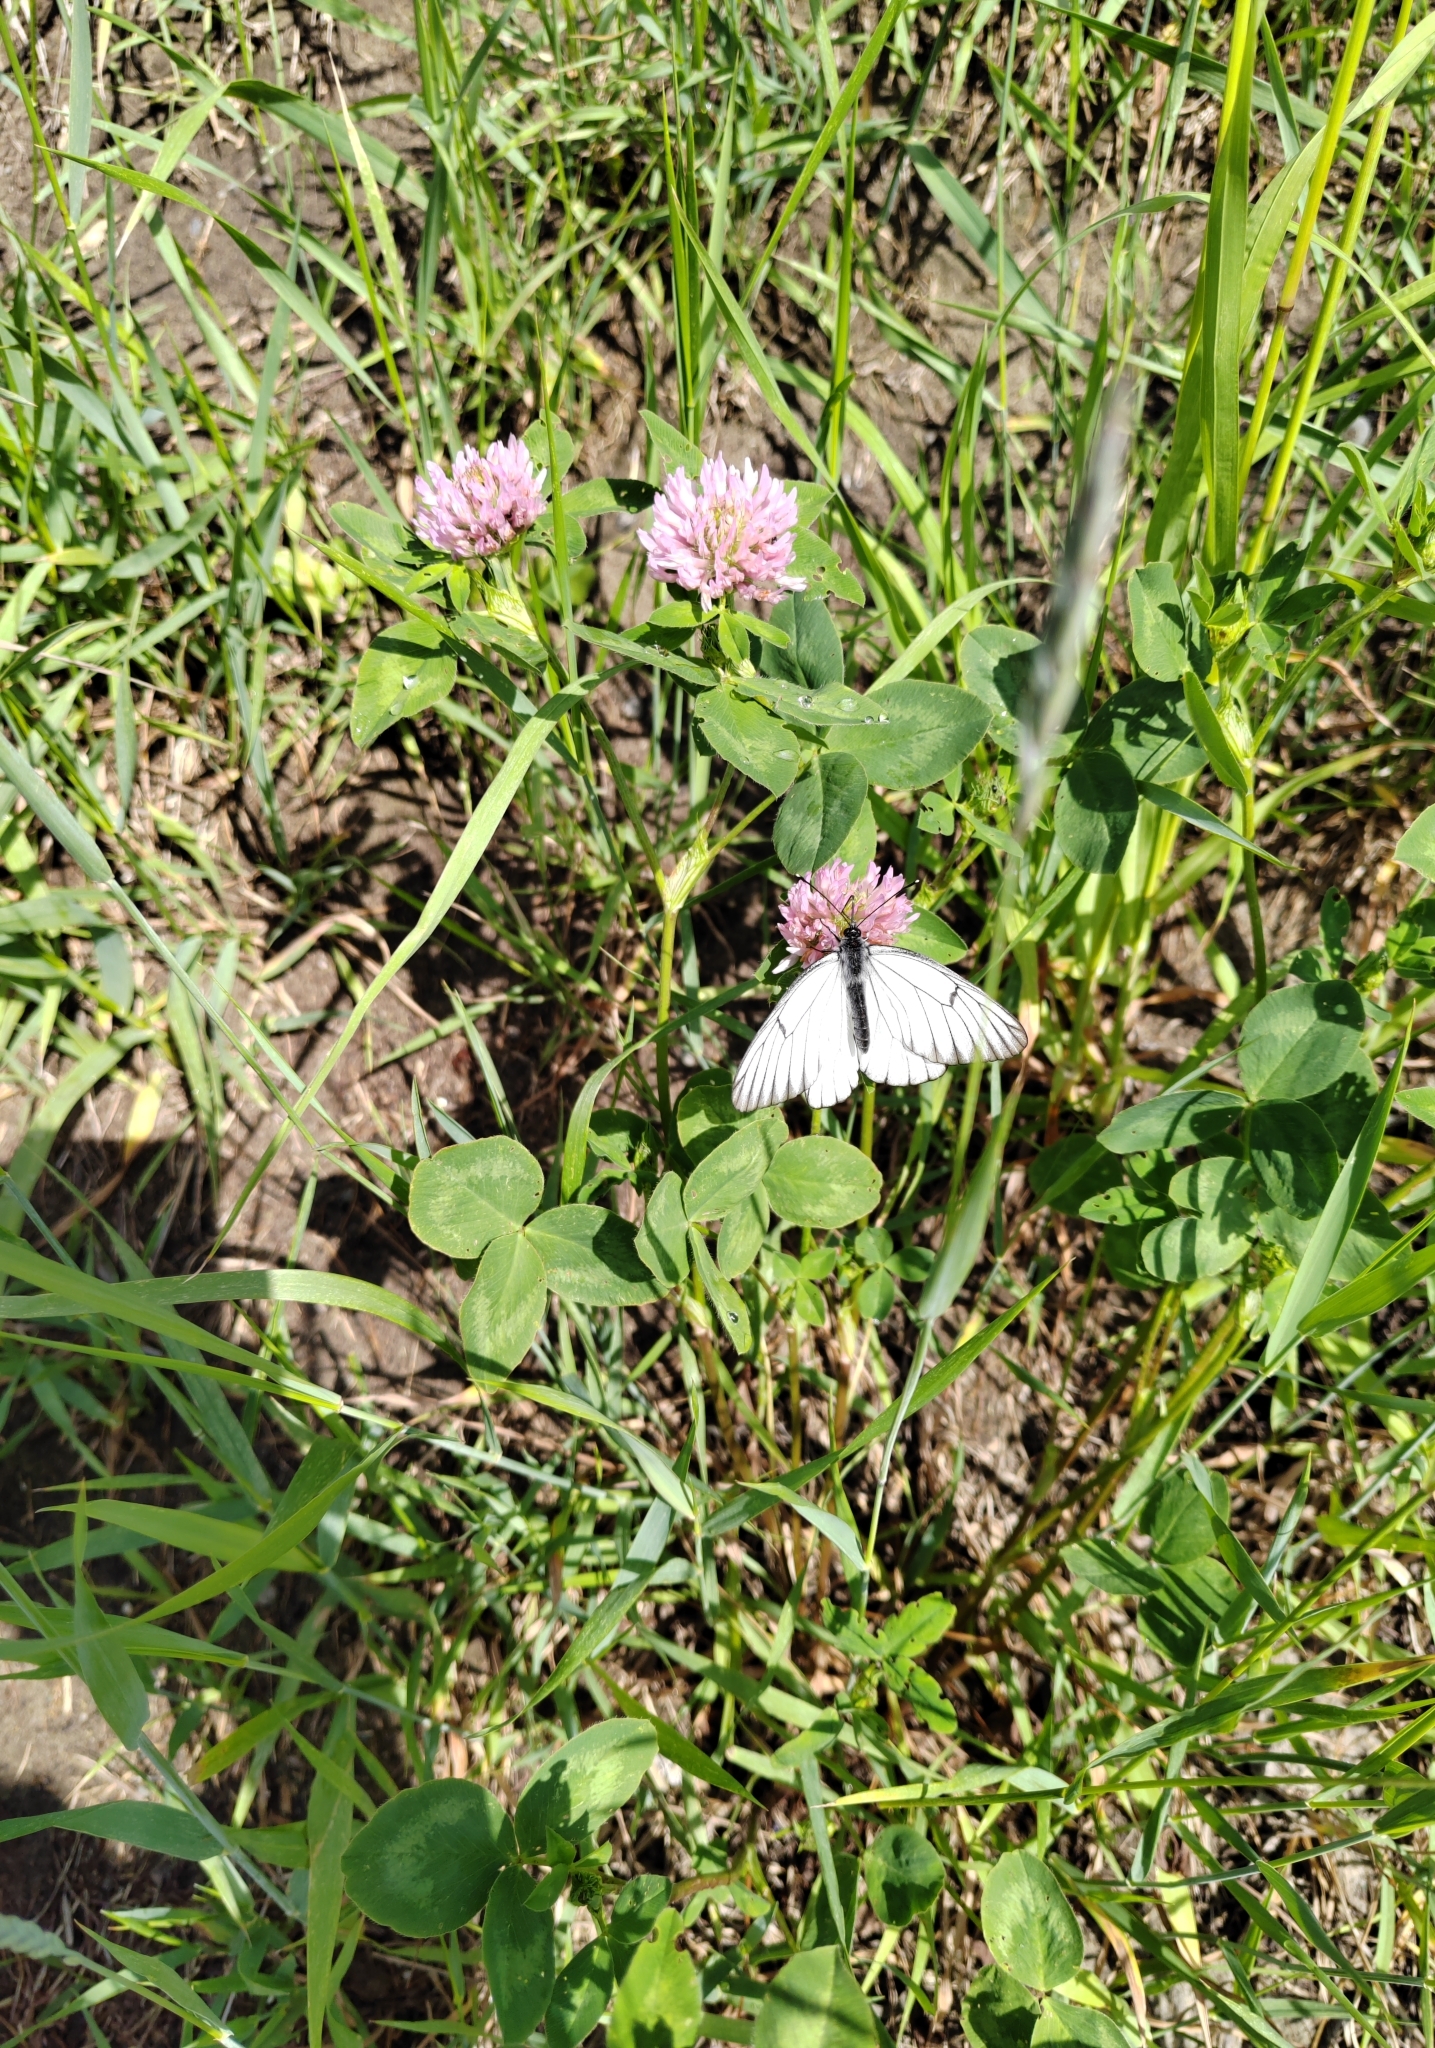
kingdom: Animalia
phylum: Arthropoda
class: Insecta
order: Lepidoptera
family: Pieridae
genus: Aporia
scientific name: Aporia crataegi
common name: Black-veined white
